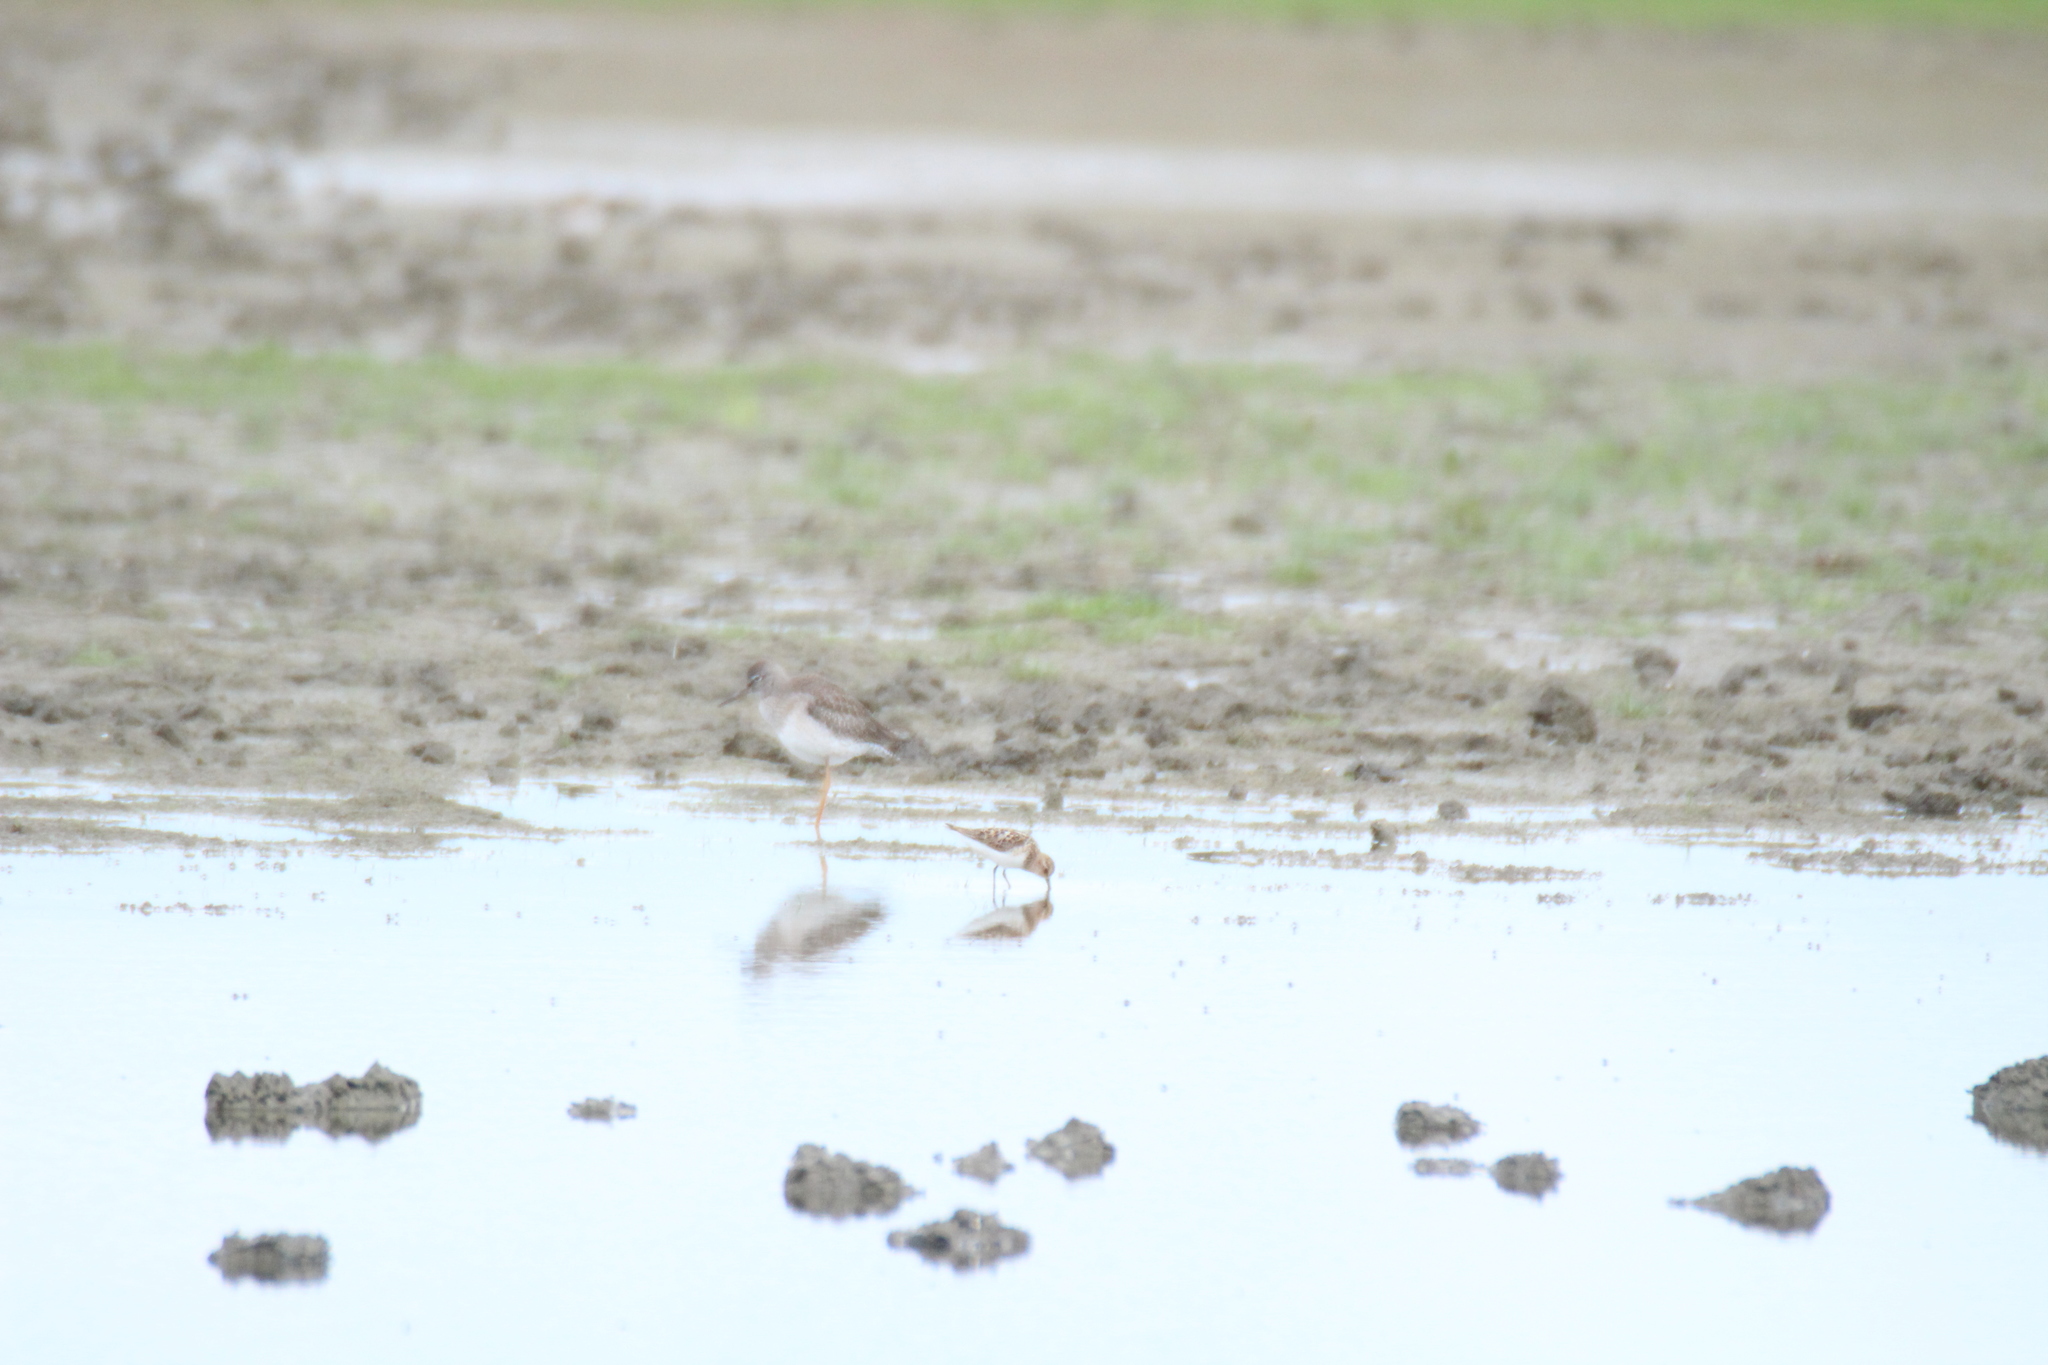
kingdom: Animalia
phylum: Chordata
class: Aves
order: Charadriiformes
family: Scolopacidae
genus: Calidris
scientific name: Calidris pugnax
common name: Ruff
